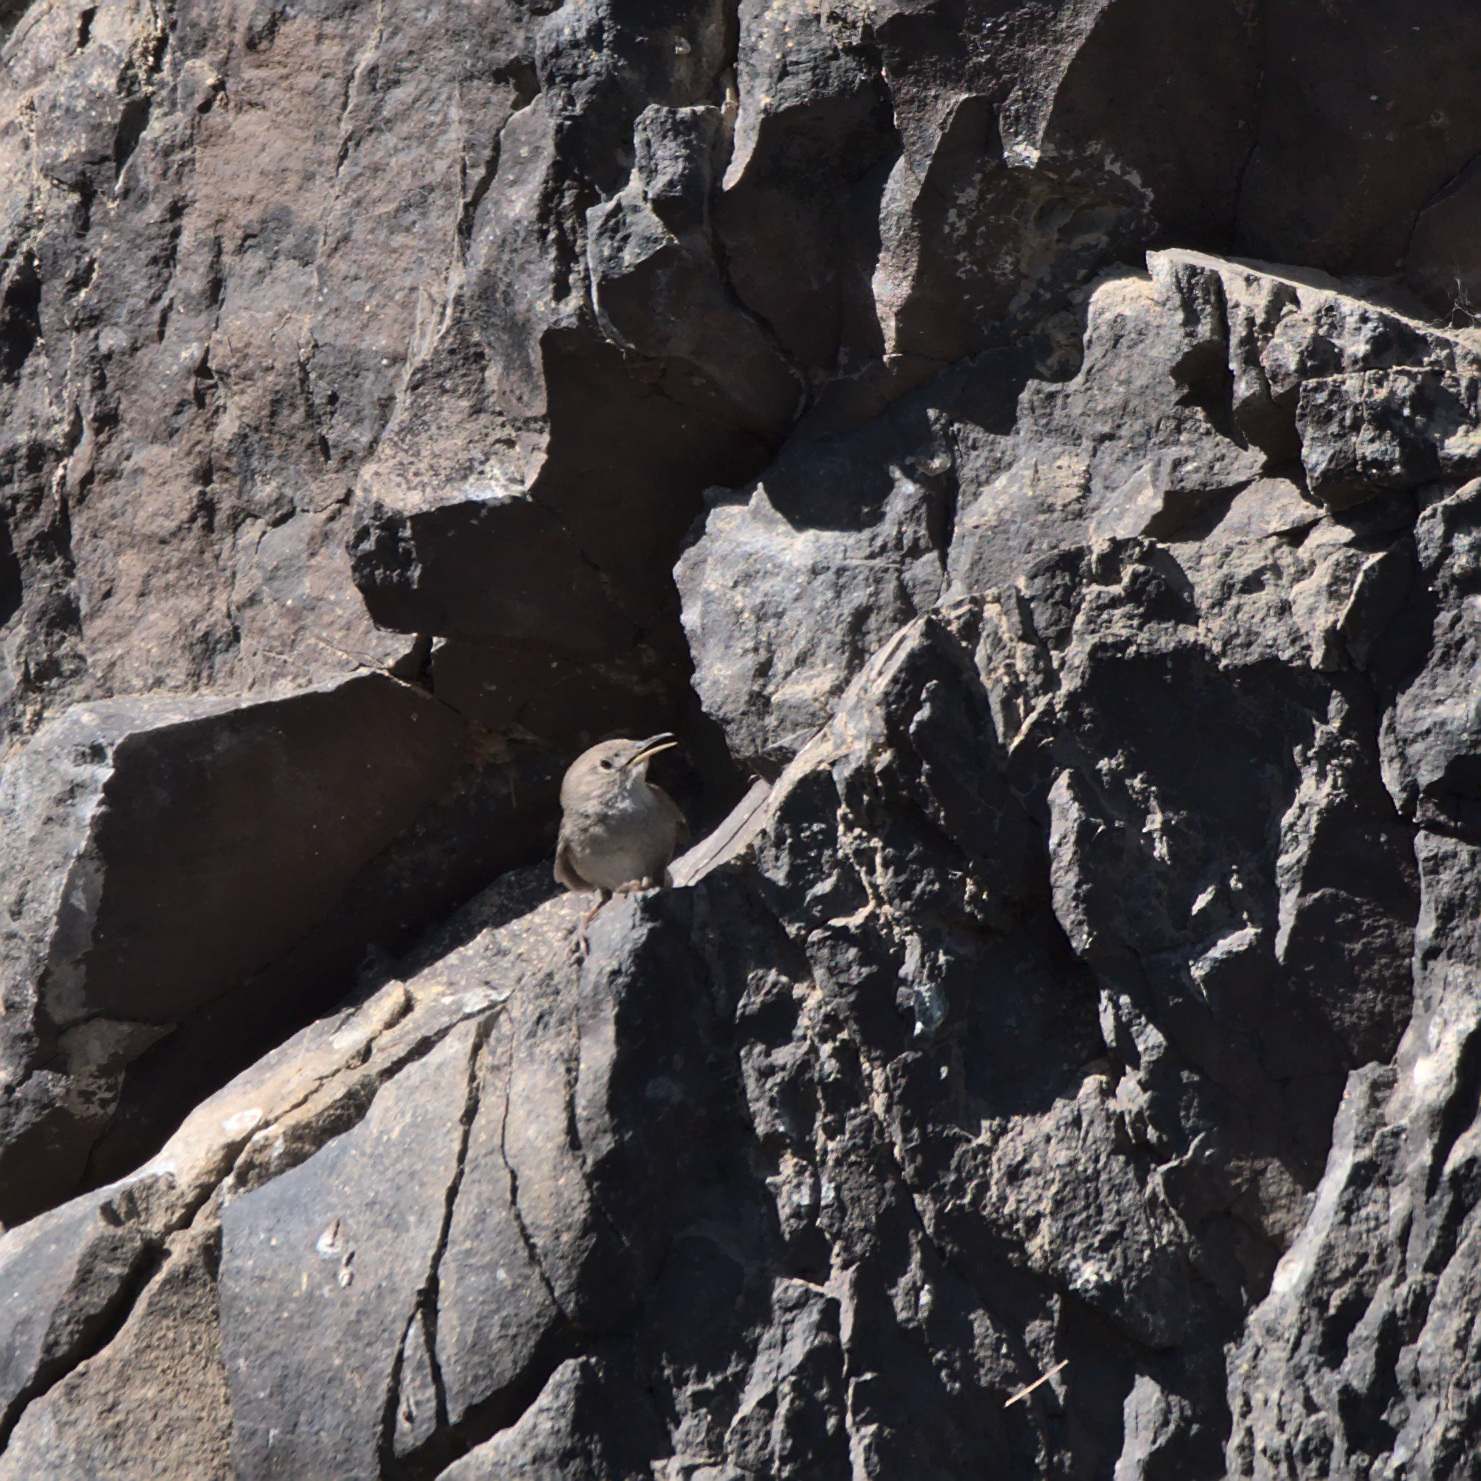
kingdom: Animalia
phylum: Chordata
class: Aves
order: Passeriformes
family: Troglodytidae
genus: Salpinctes
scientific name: Salpinctes obsoletus
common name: Rock wren
